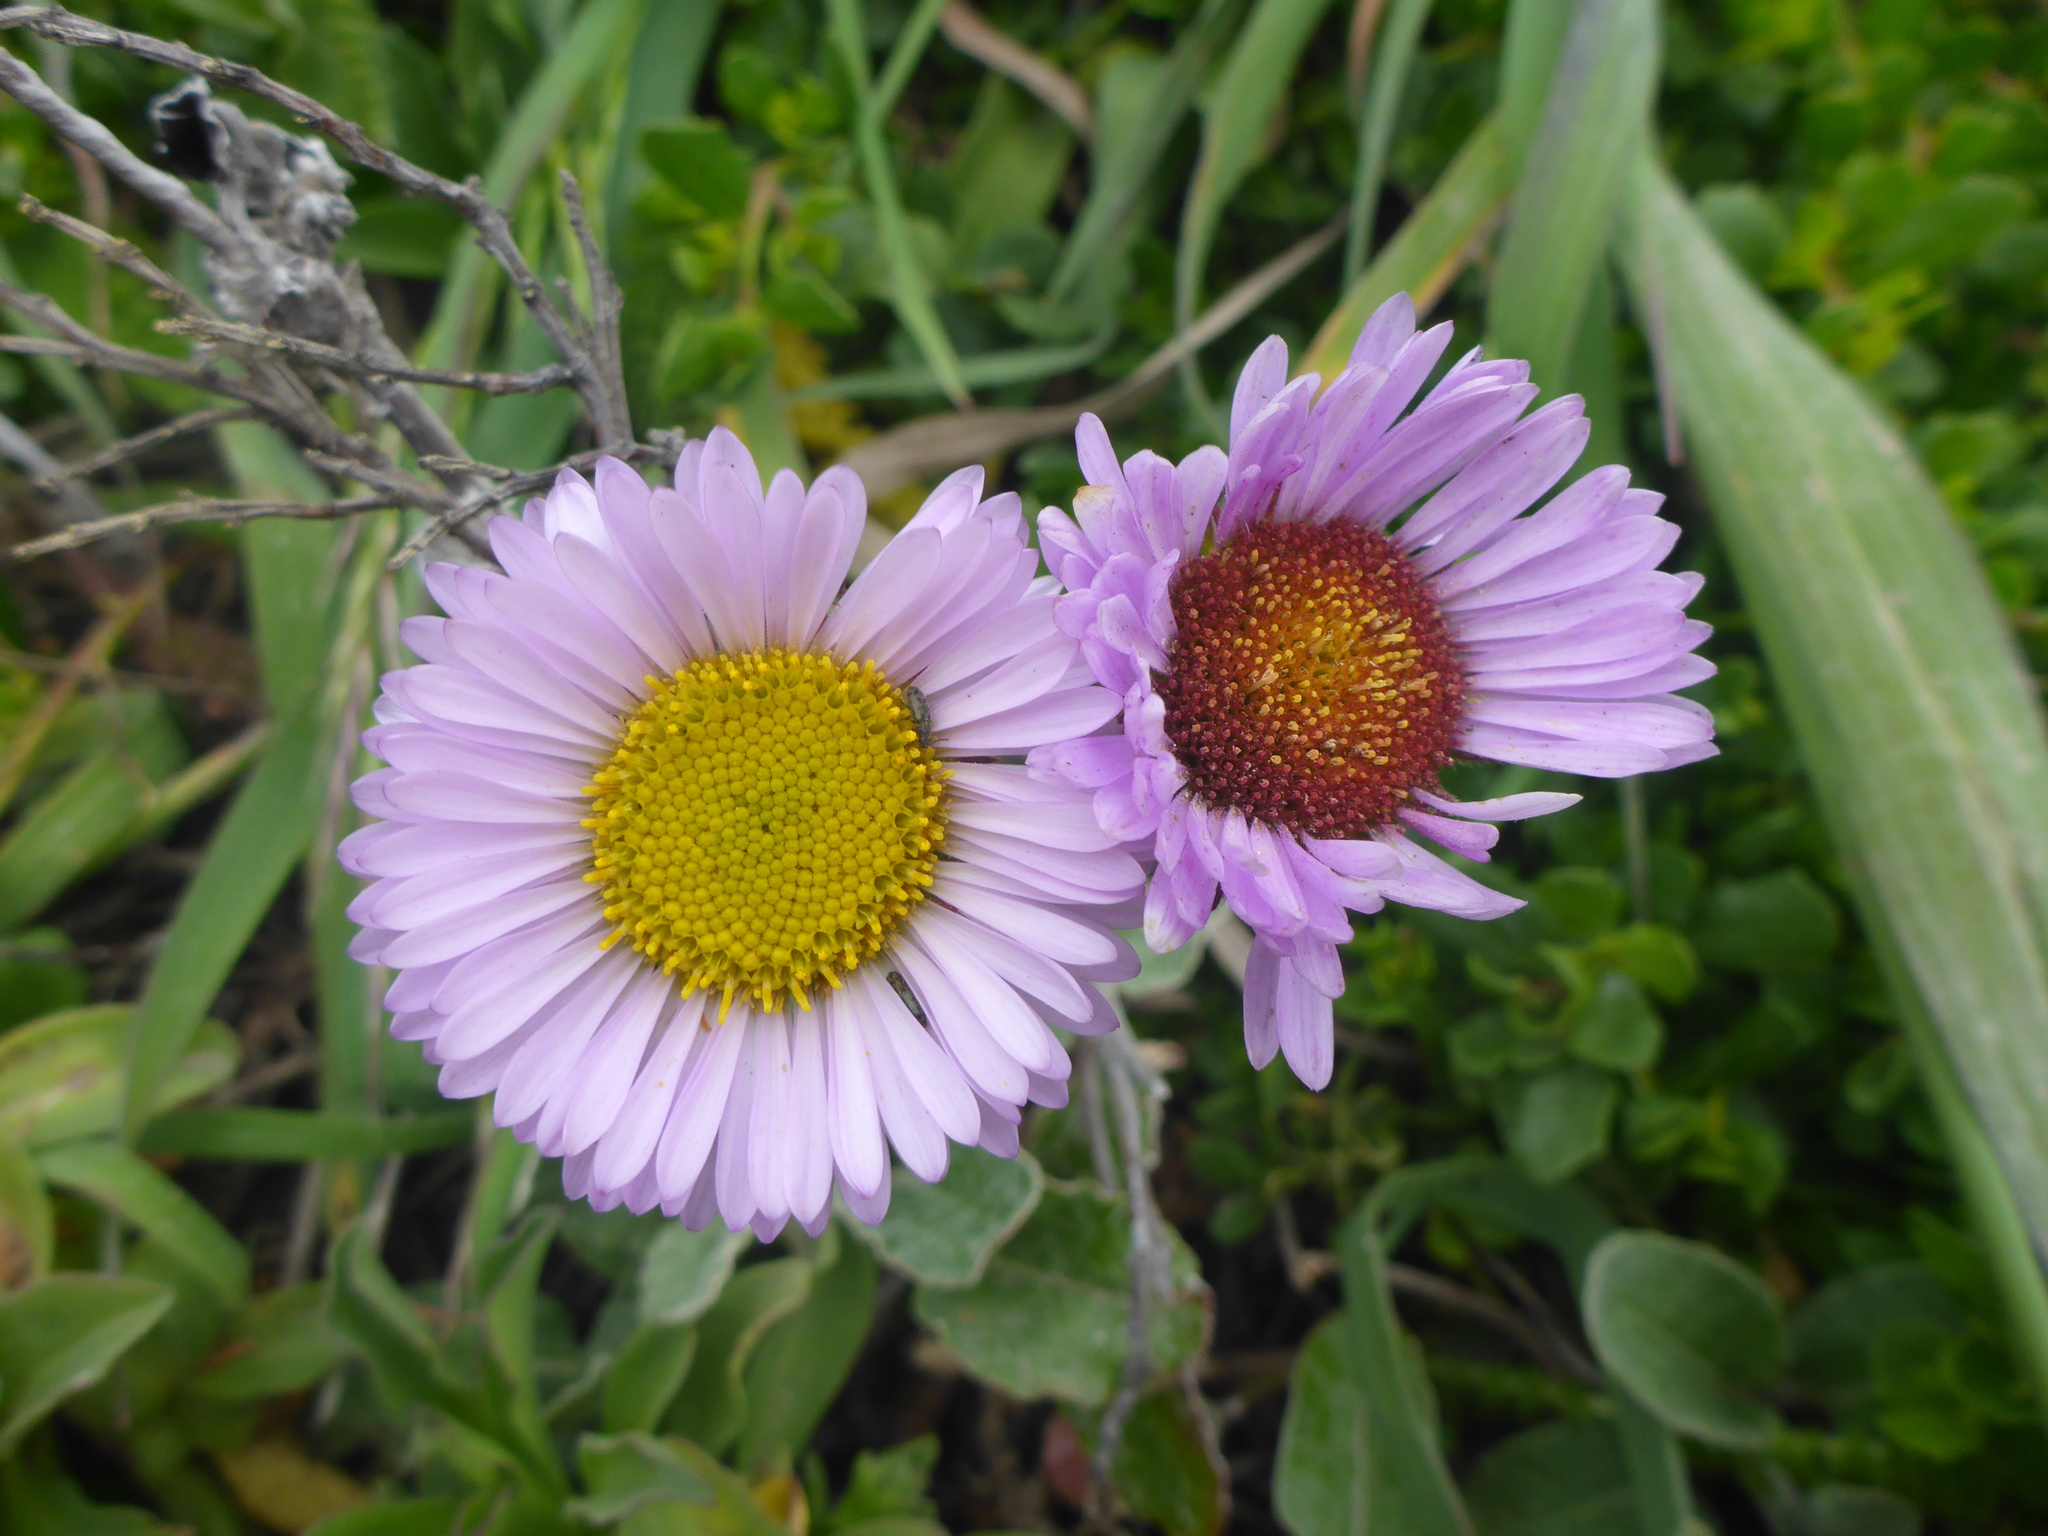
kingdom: Plantae
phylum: Tracheophyta
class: Magnoliopsida
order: Asterales
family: Asteraceae
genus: Erigeron
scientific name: Erigeron glaucus
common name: Seaside daisy
